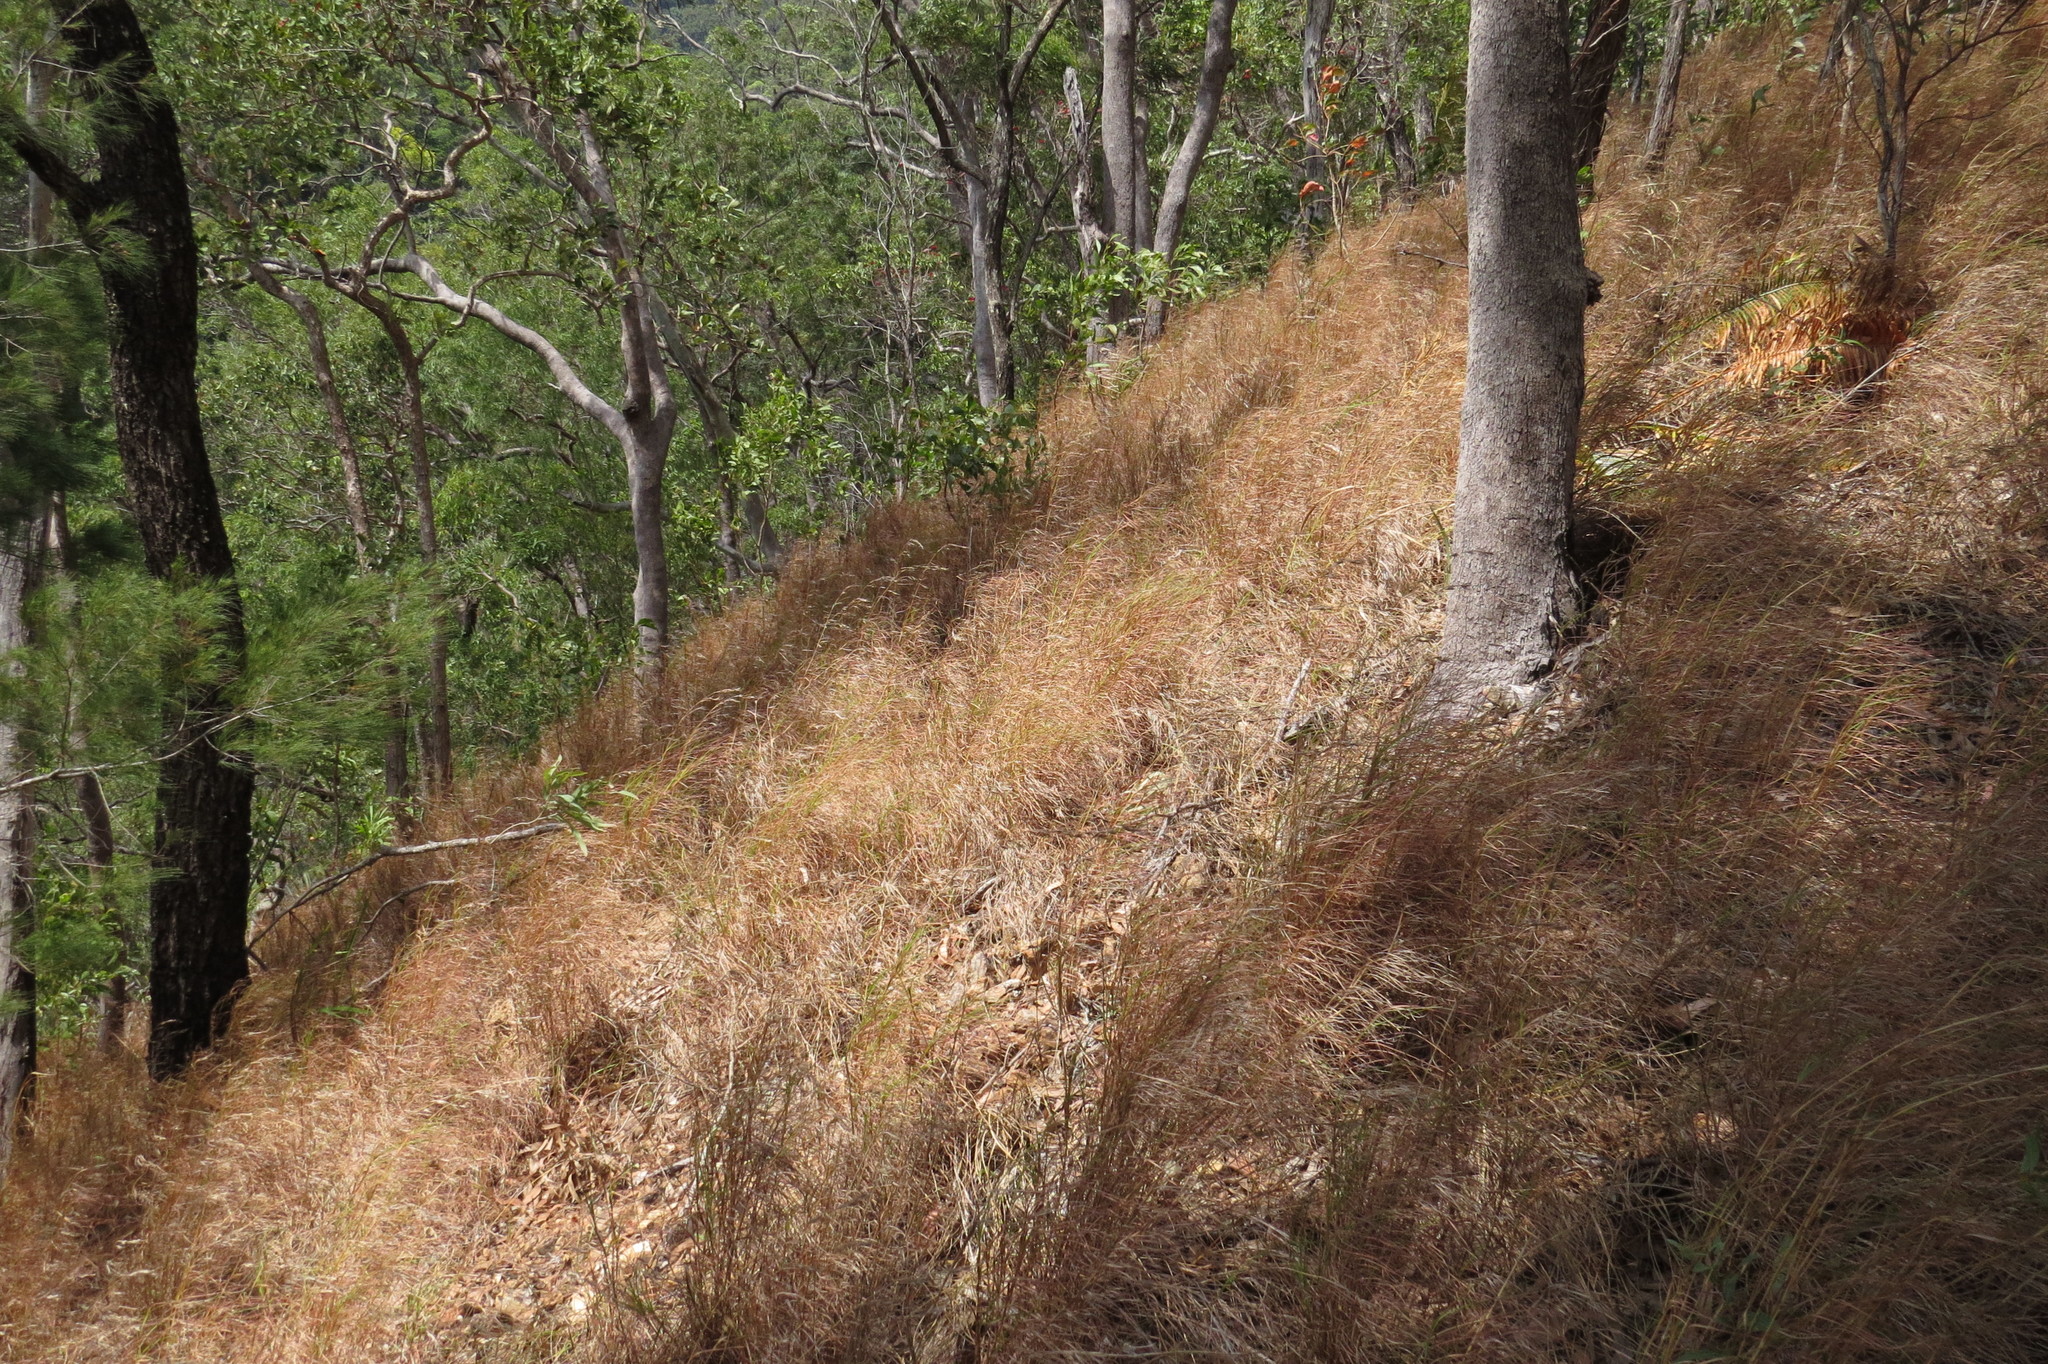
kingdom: Plantae
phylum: Tracheophyta
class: Liliopsida
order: Poales
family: Poaceae
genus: Themeda
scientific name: Themeda triandra
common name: Kangaroo grass
